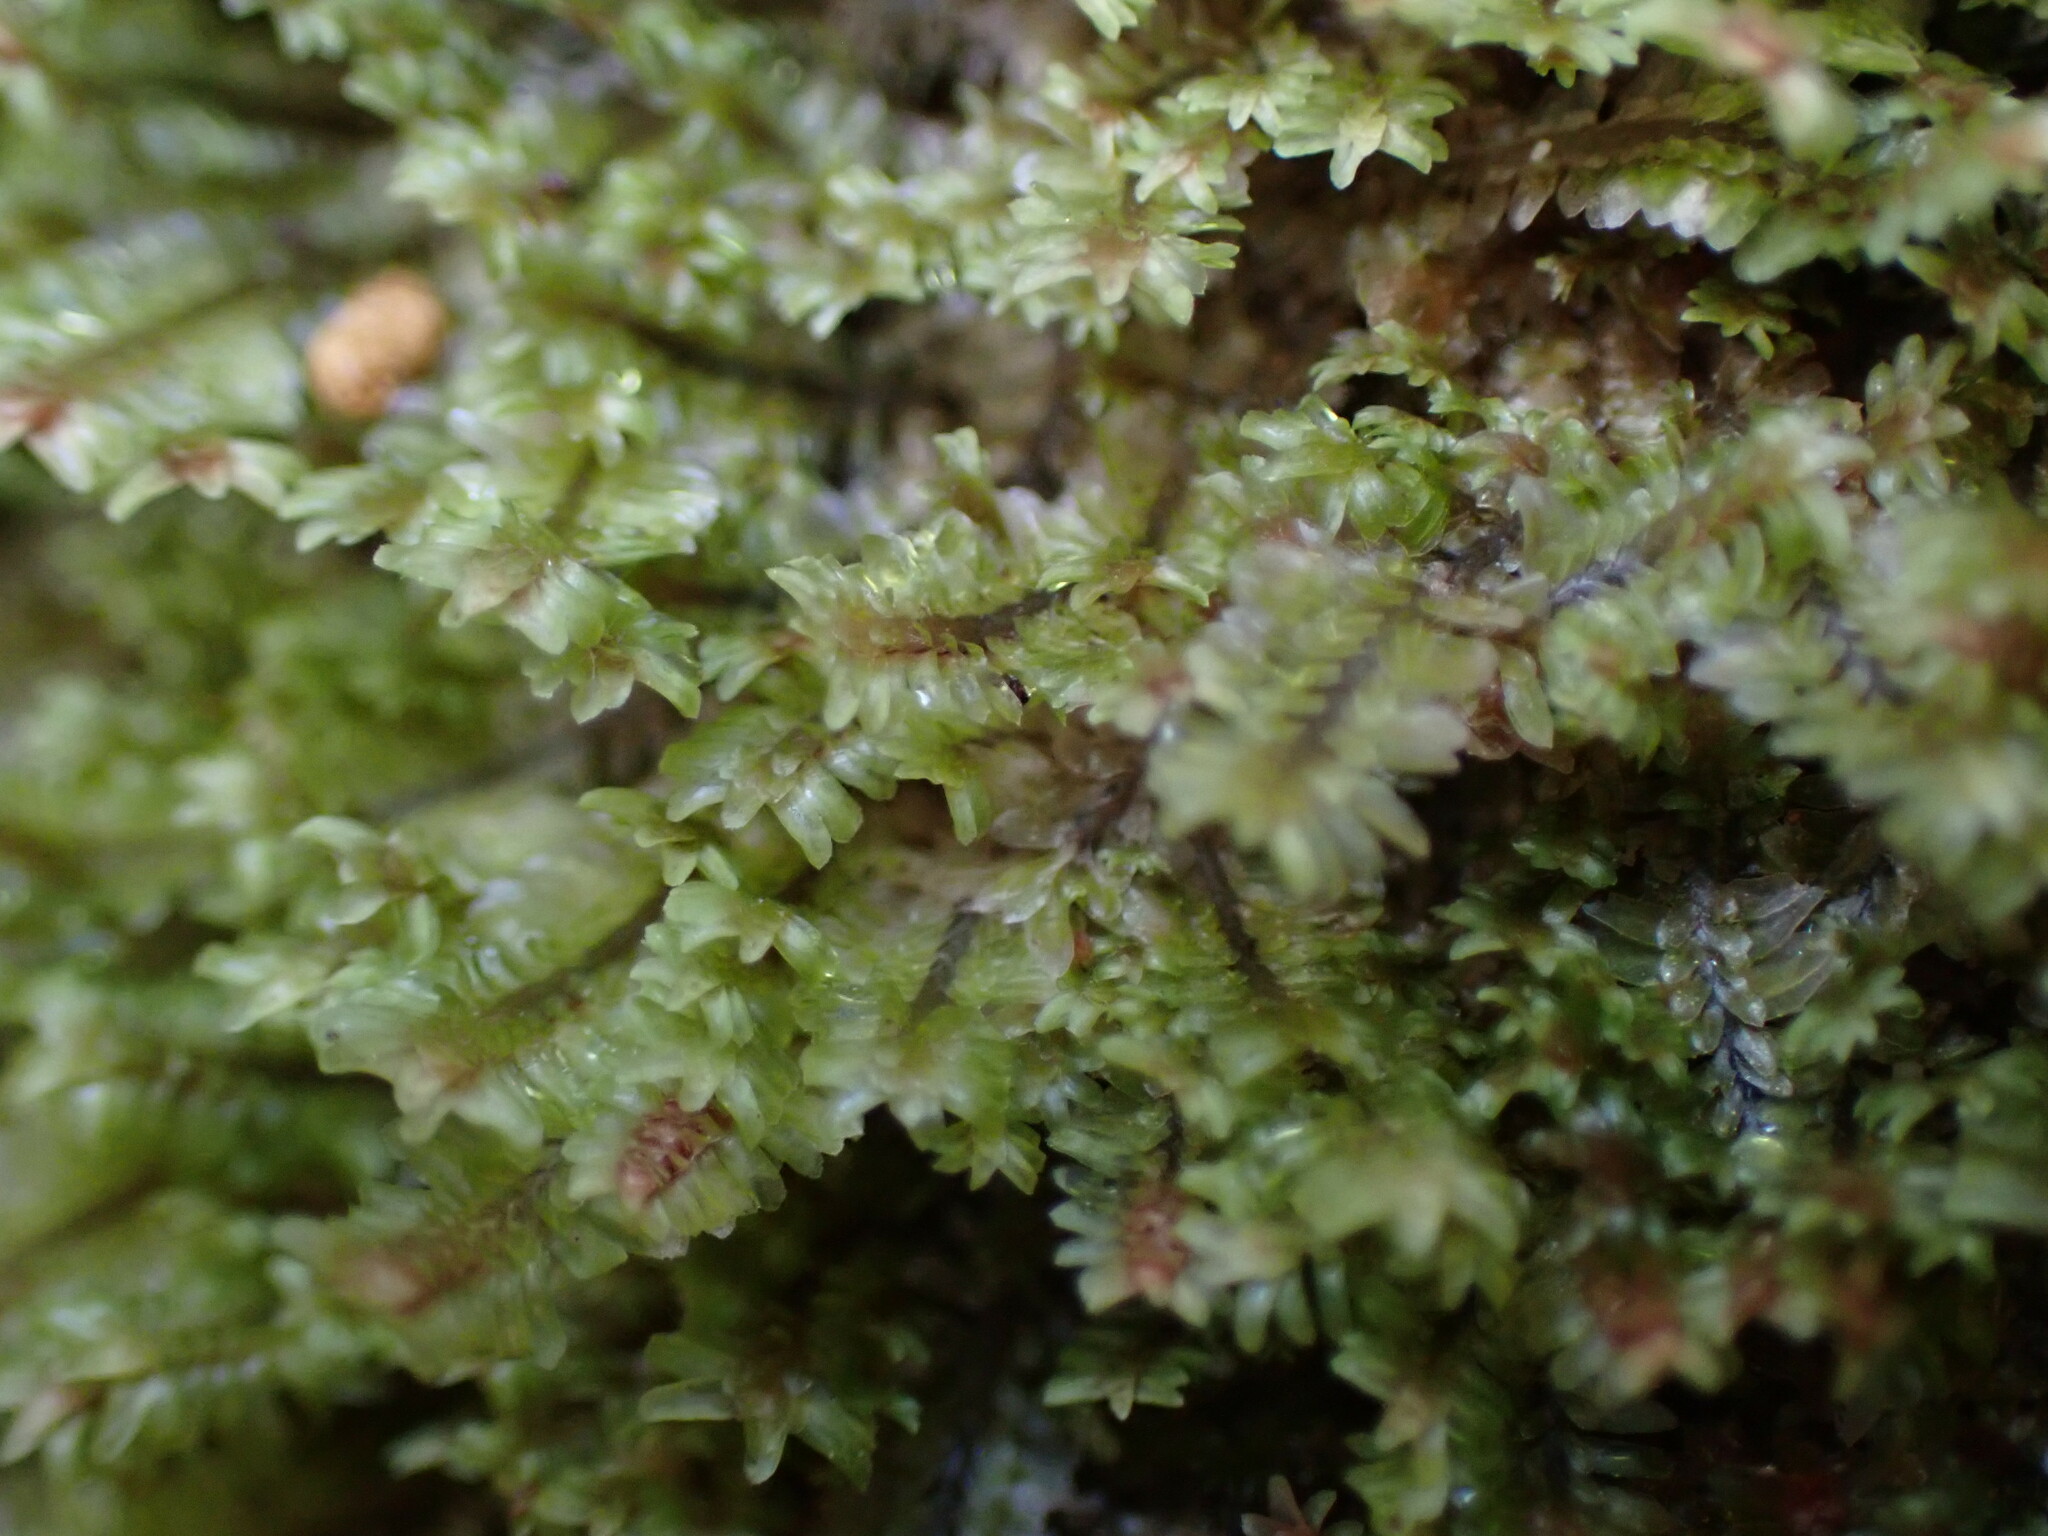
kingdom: Plantae
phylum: Marchantiophyta
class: Jungermanniopsida
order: Jungermanniales
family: Scapaniaceae
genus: Diplophyllum
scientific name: Diplophyllum albicans
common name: White earwort
